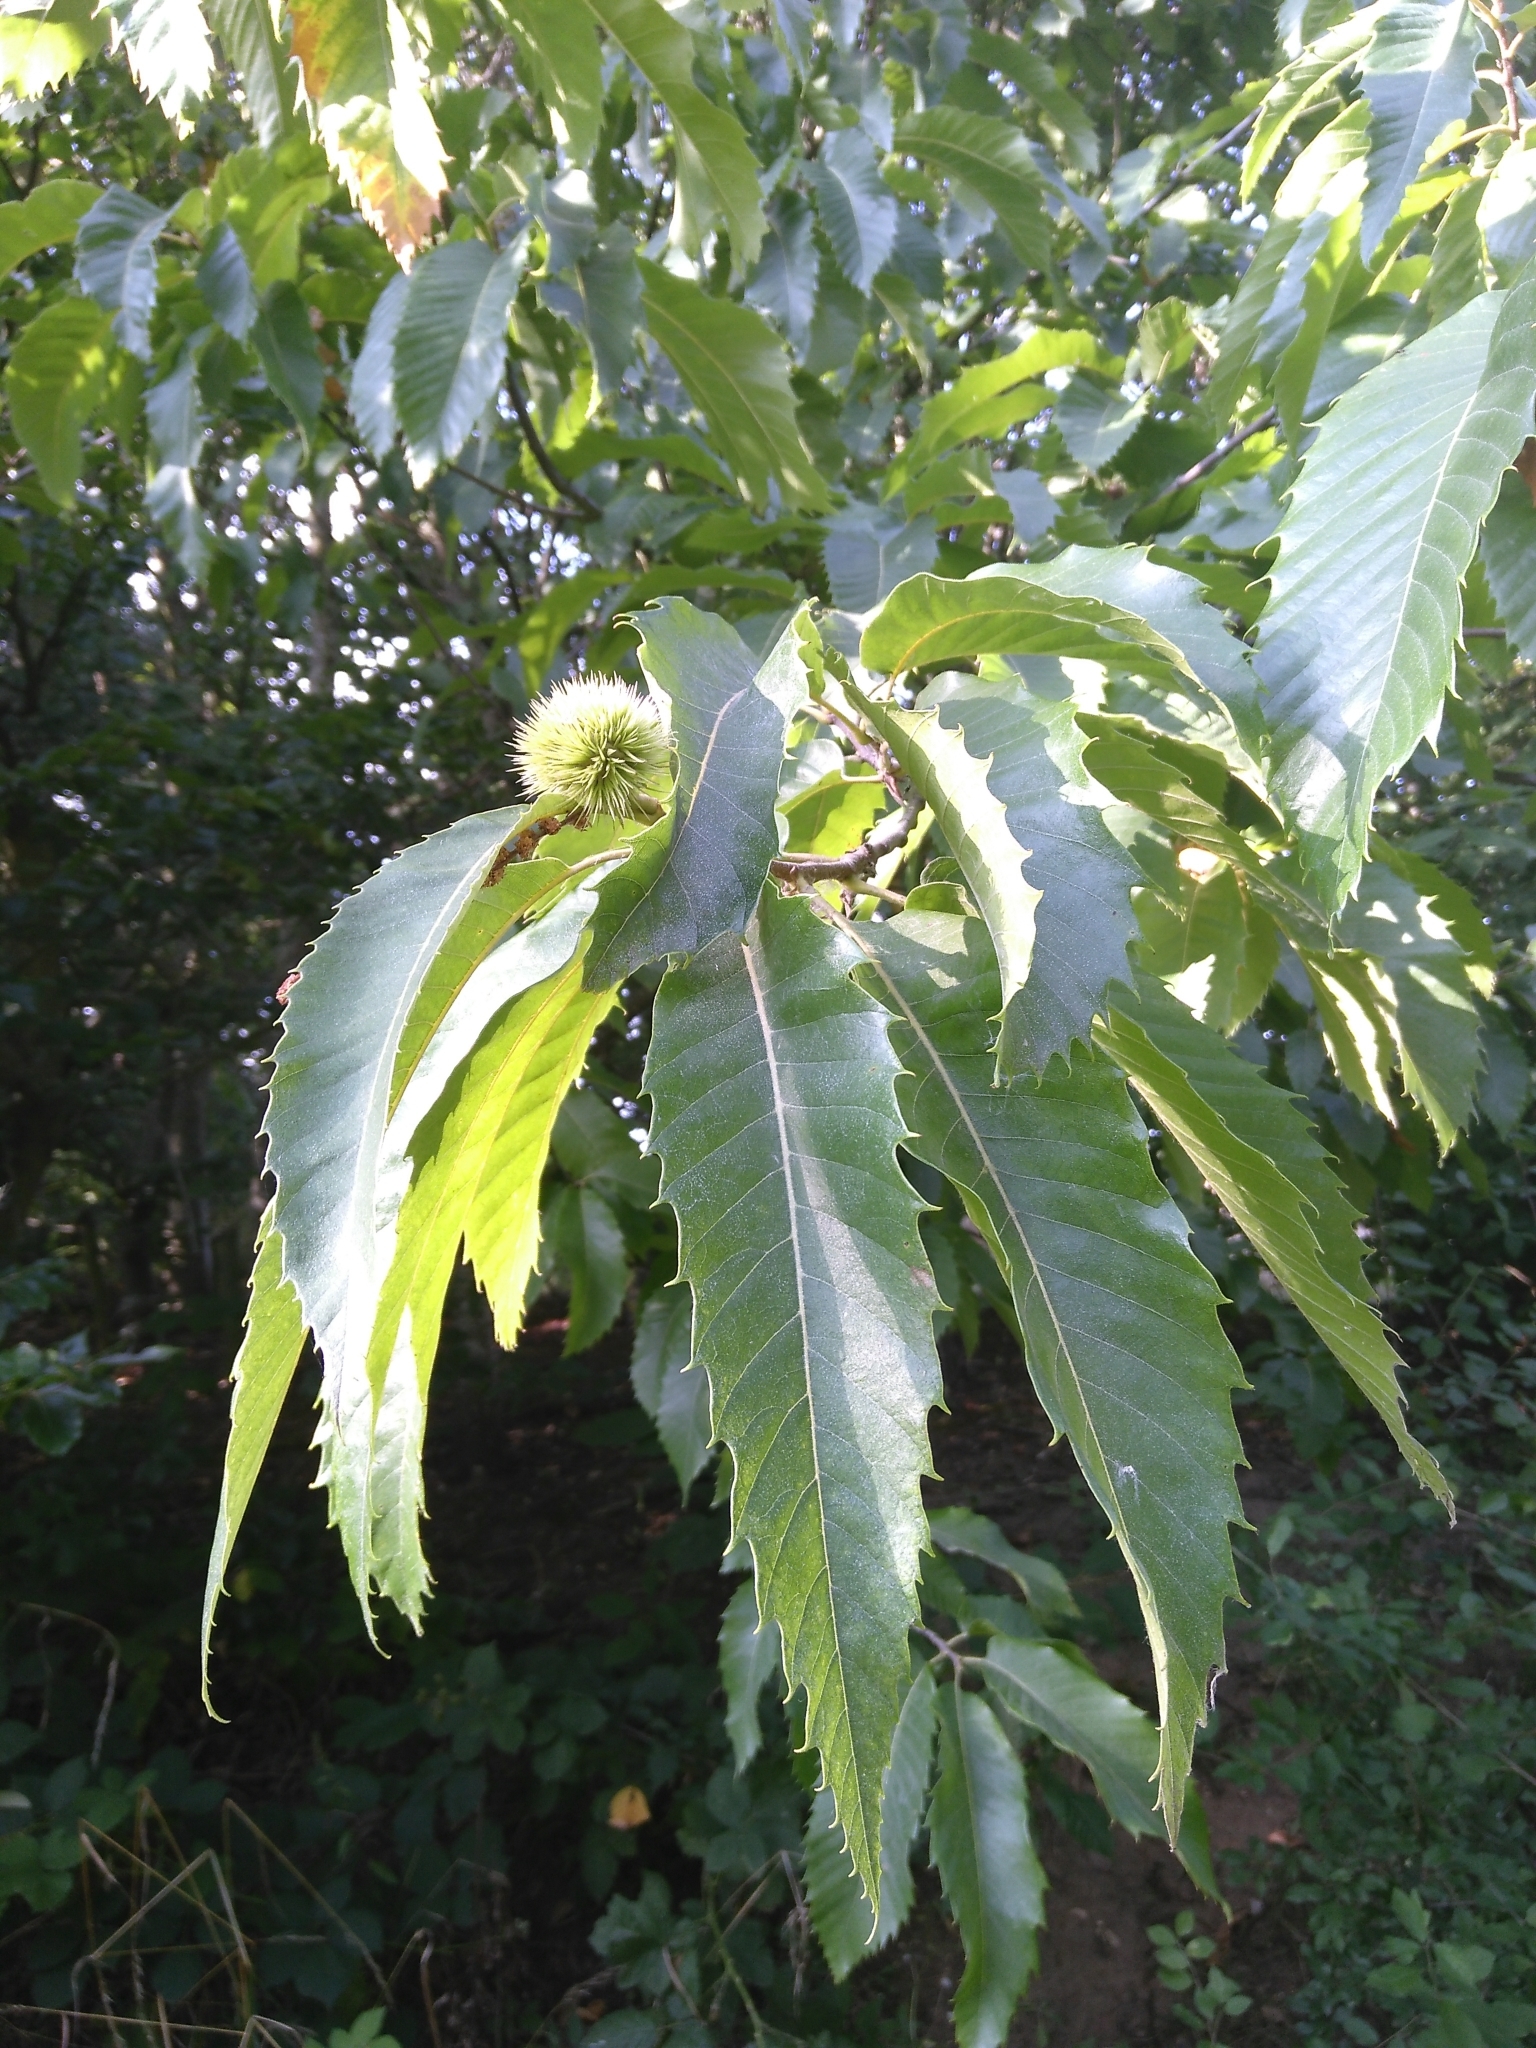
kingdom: Plantae
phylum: Tracheophyta
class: Magnoliopsida
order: Fagales
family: Fagaceae
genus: Castanea
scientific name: Castanea sativa
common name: Sweet chestnut
